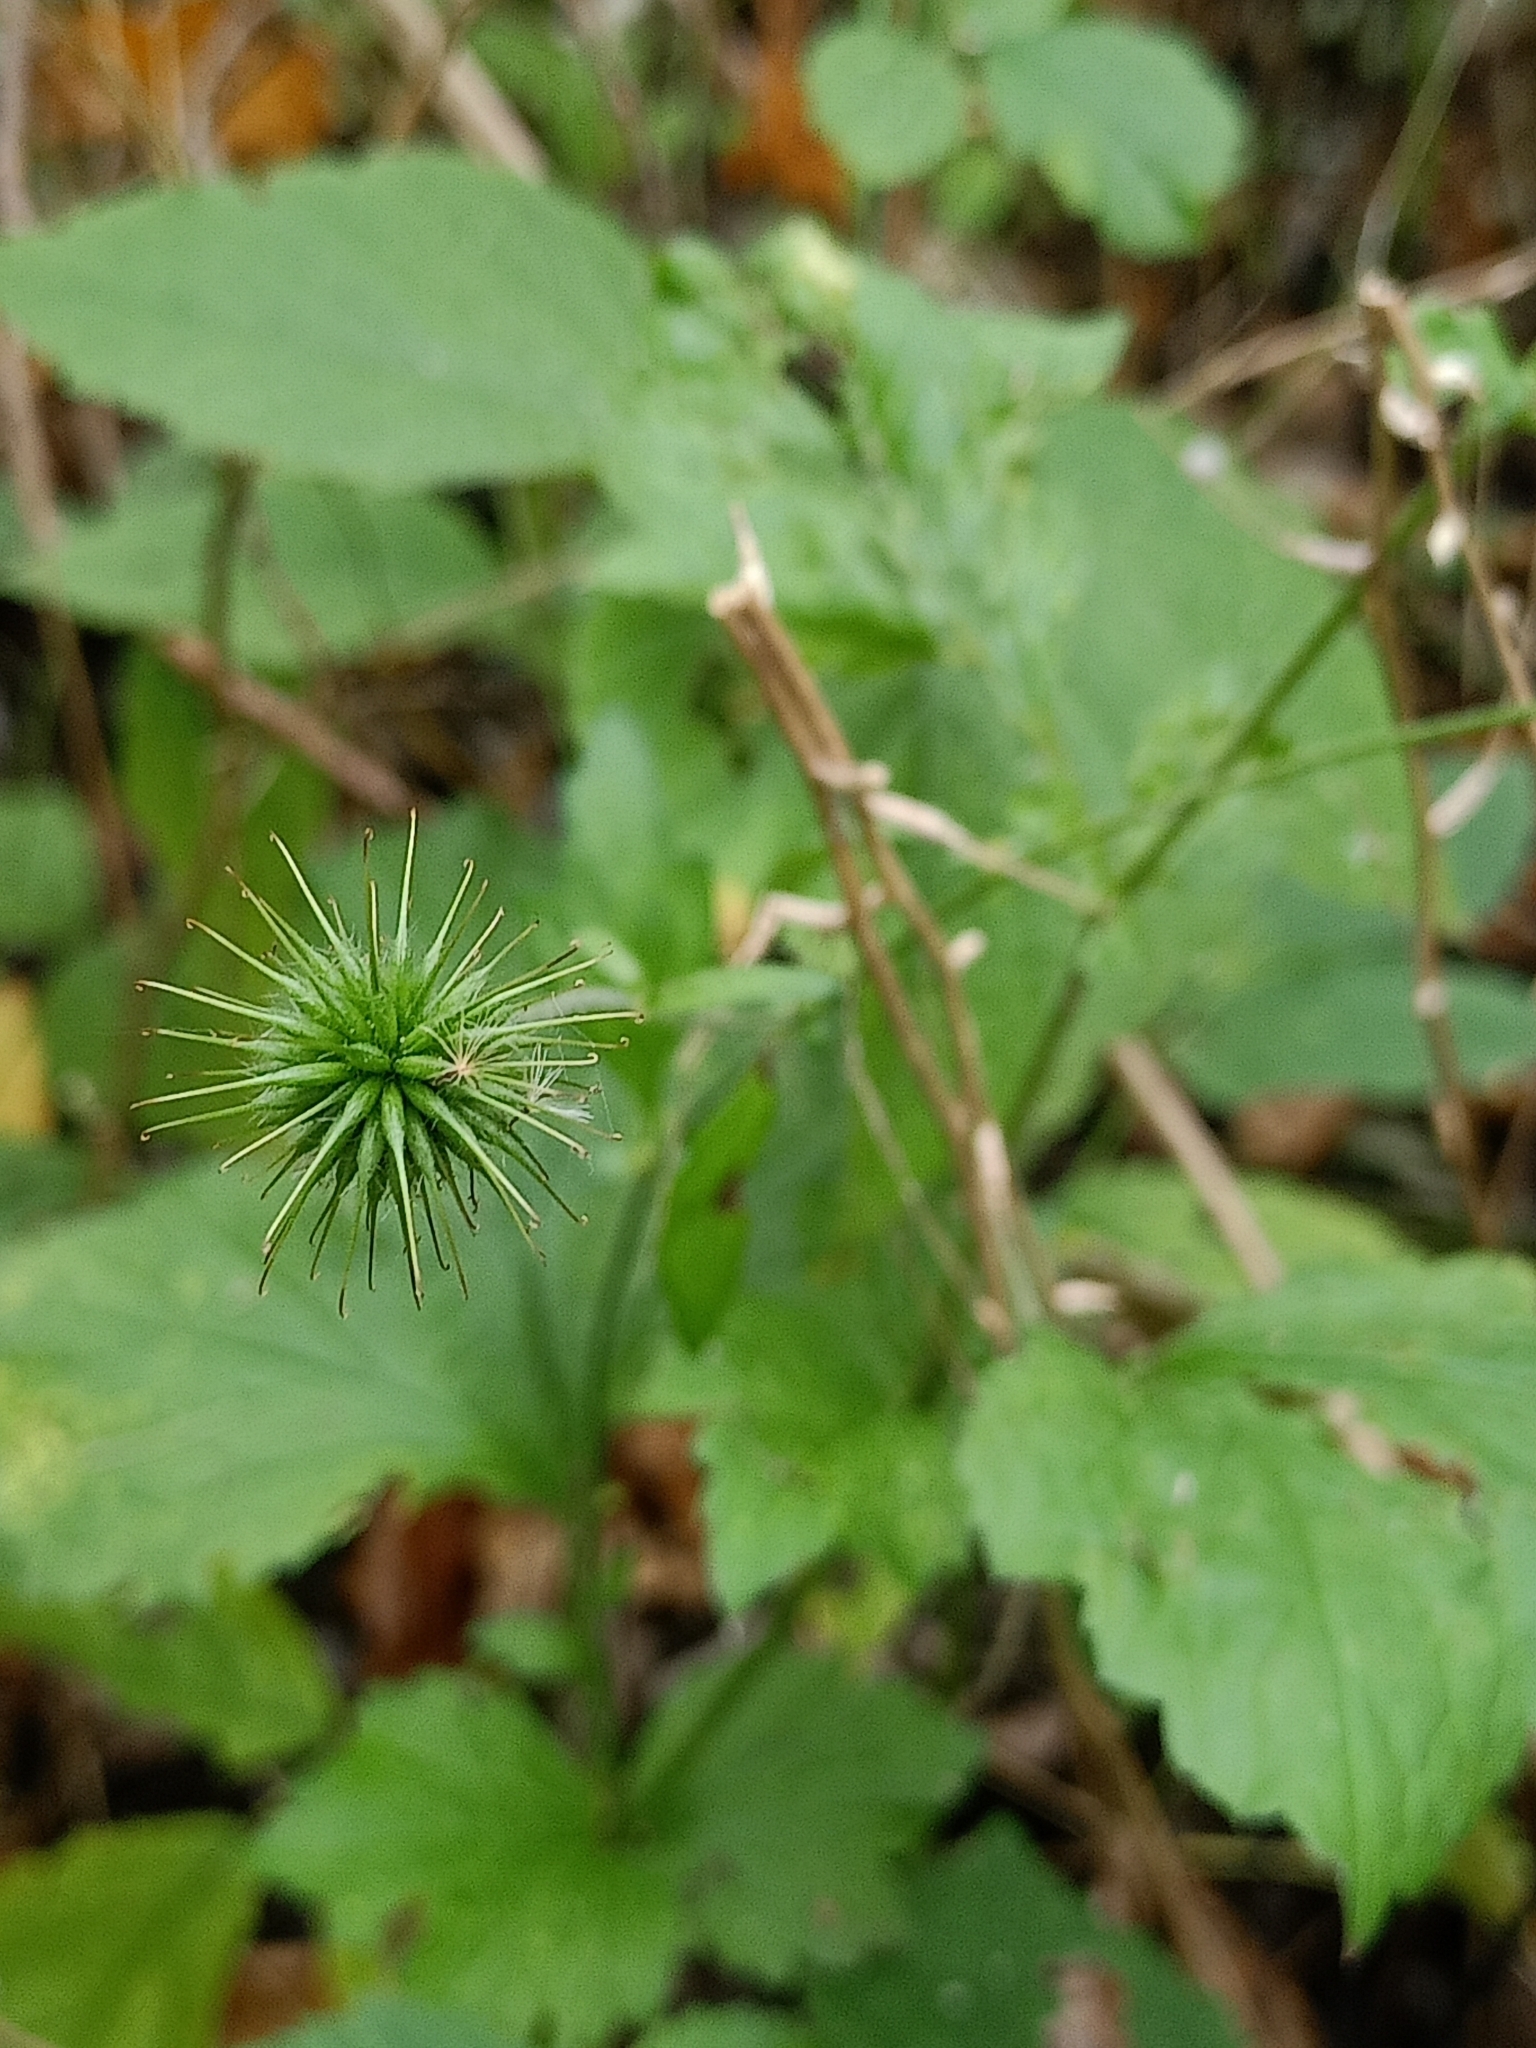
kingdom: Plantae
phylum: Tracheophyta
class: Magnoliopsida
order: Rosales
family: Rosaceae
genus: Geum
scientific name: Geum urbanum
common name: Wood avens
